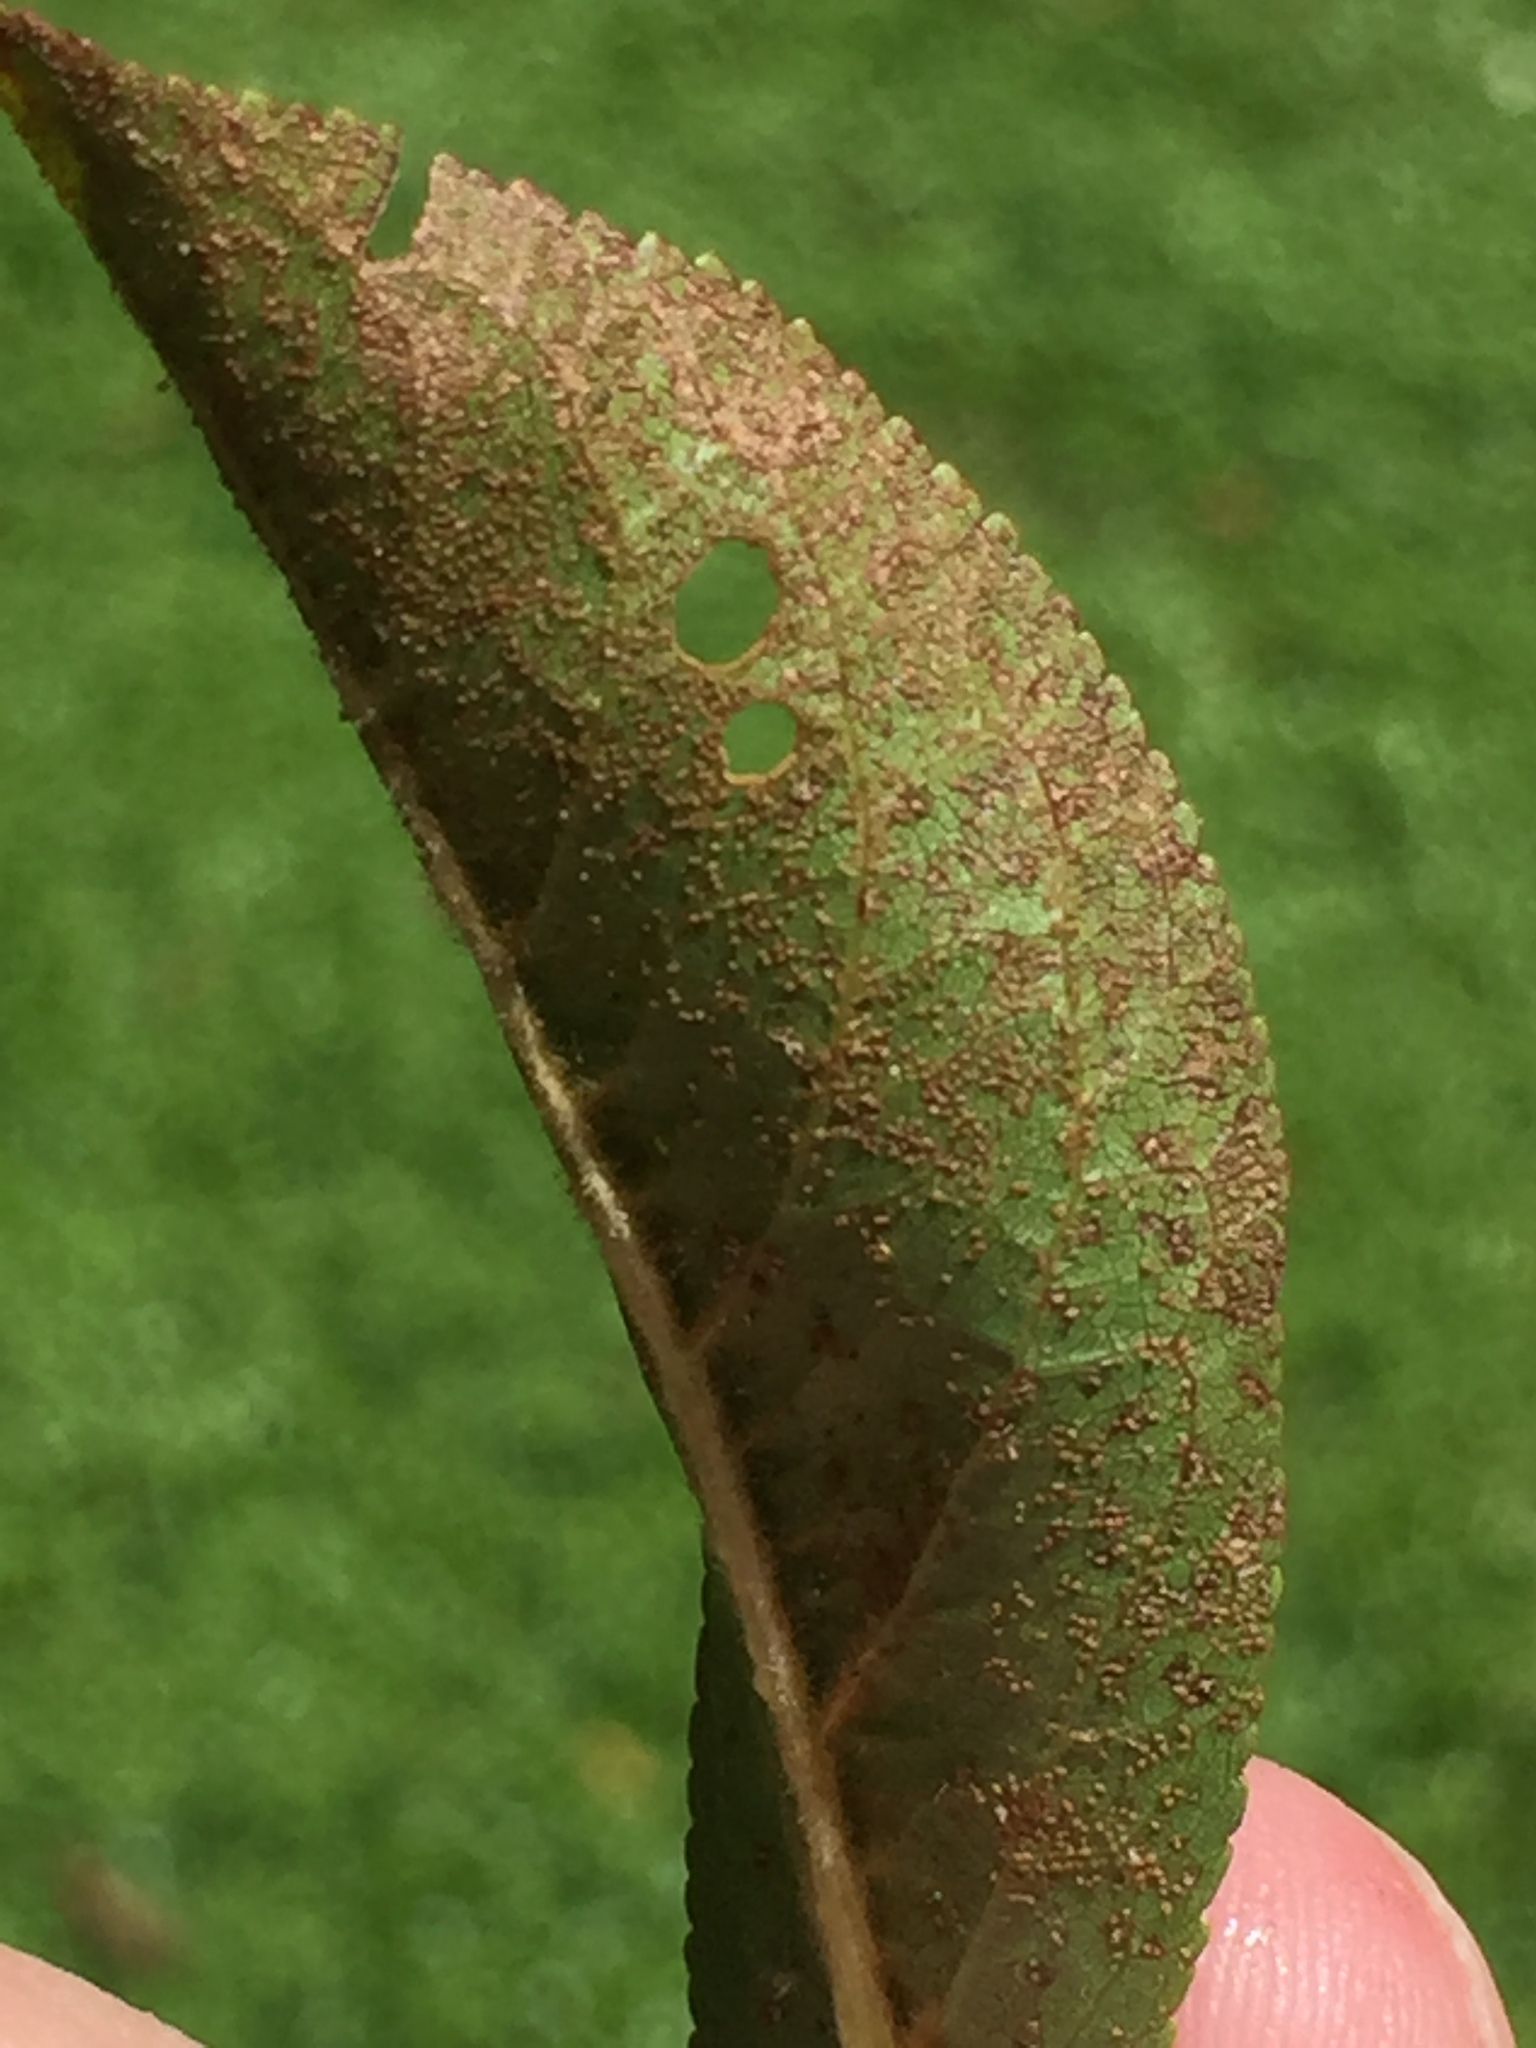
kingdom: Fungi
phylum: Basidiomycota
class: Pucciniomycetes
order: Pucciniales
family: Tranzscheliaceae
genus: Tranzschelia
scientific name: Tranzschelia discolor
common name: Plum rust
